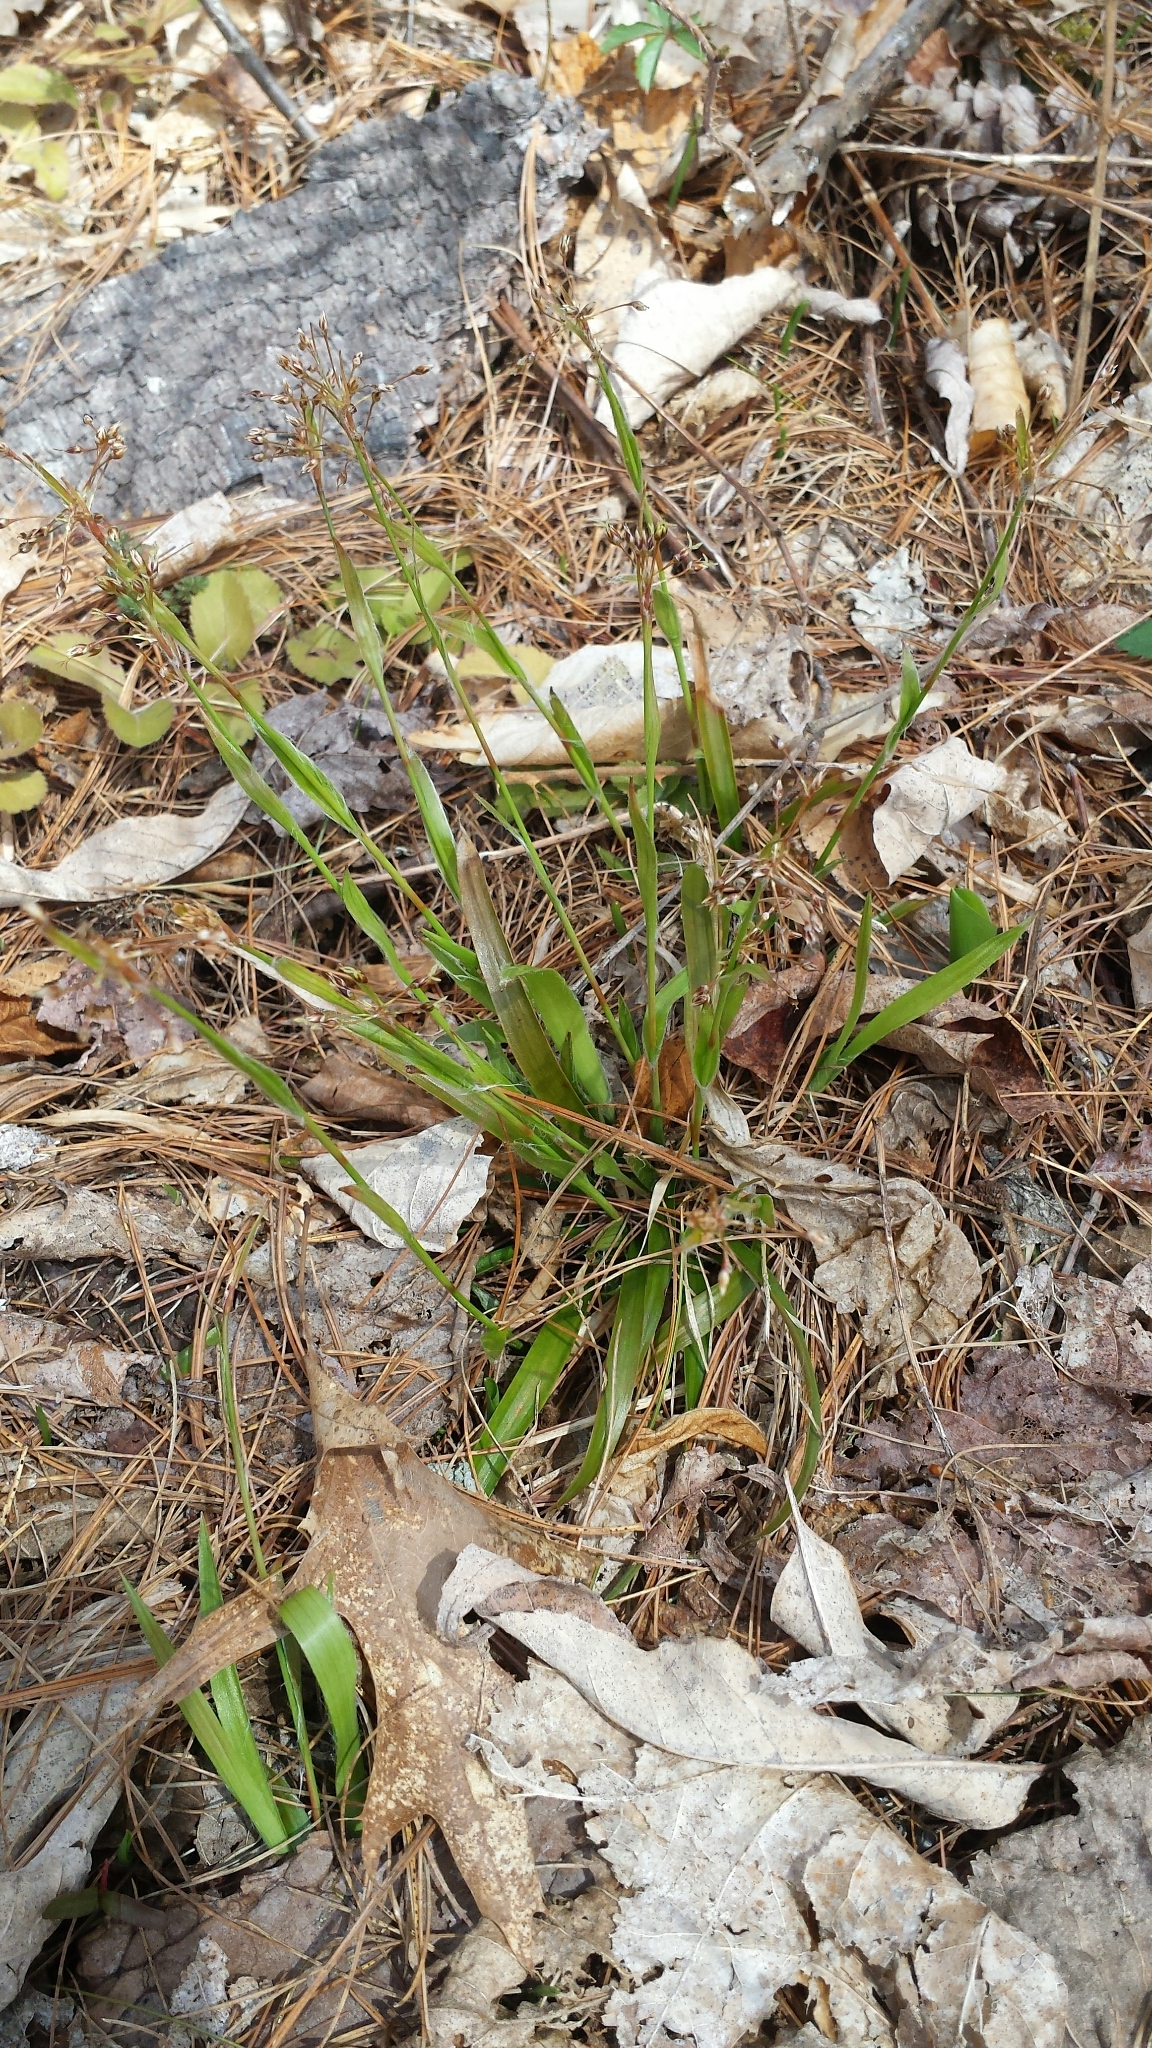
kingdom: Plantae
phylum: Tracheophyta
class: Liliopsida
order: Poales
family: Juncaceae
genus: Luzula
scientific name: Luzula acuminata
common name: Hairy woodrush
